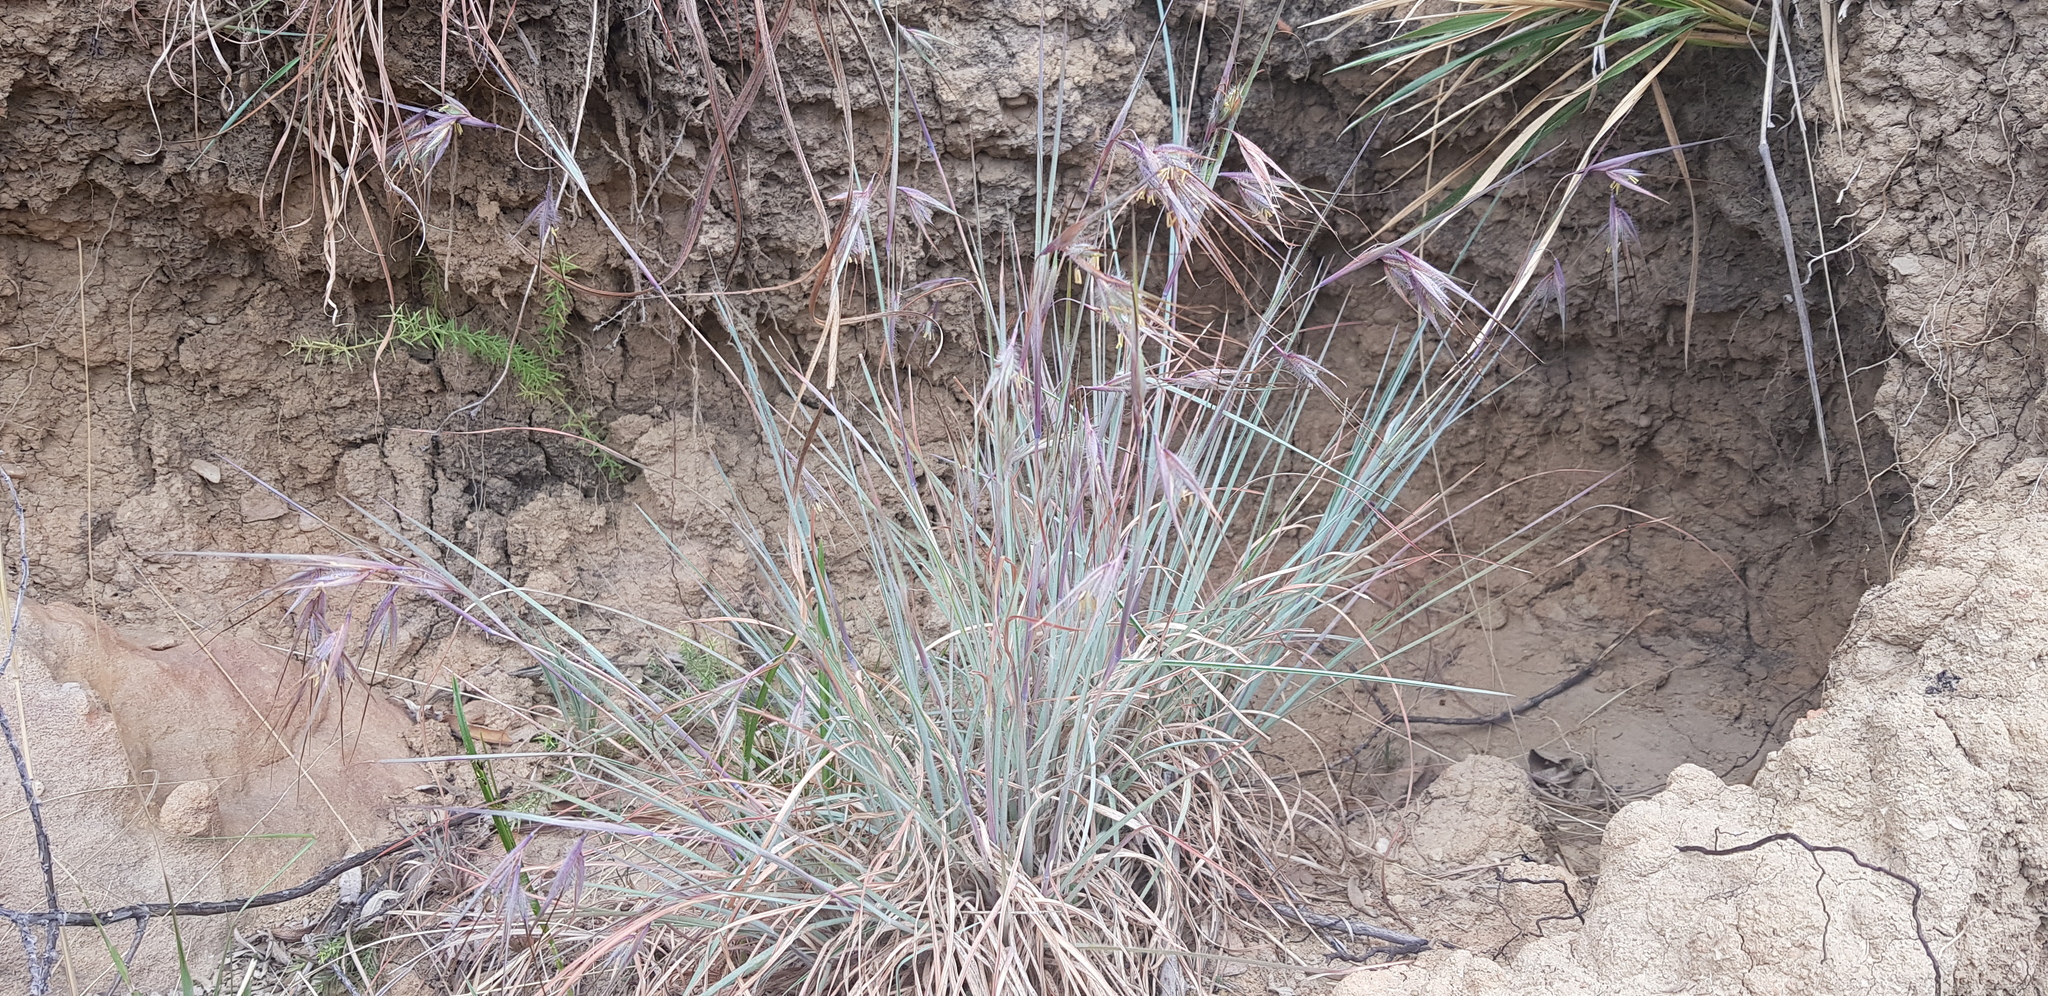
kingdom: Plantae
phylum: Tracheophyta
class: Liliopsida
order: Poales
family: Poaceae
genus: Themeda
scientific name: Themeda triandra
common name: Kangaroo grass
